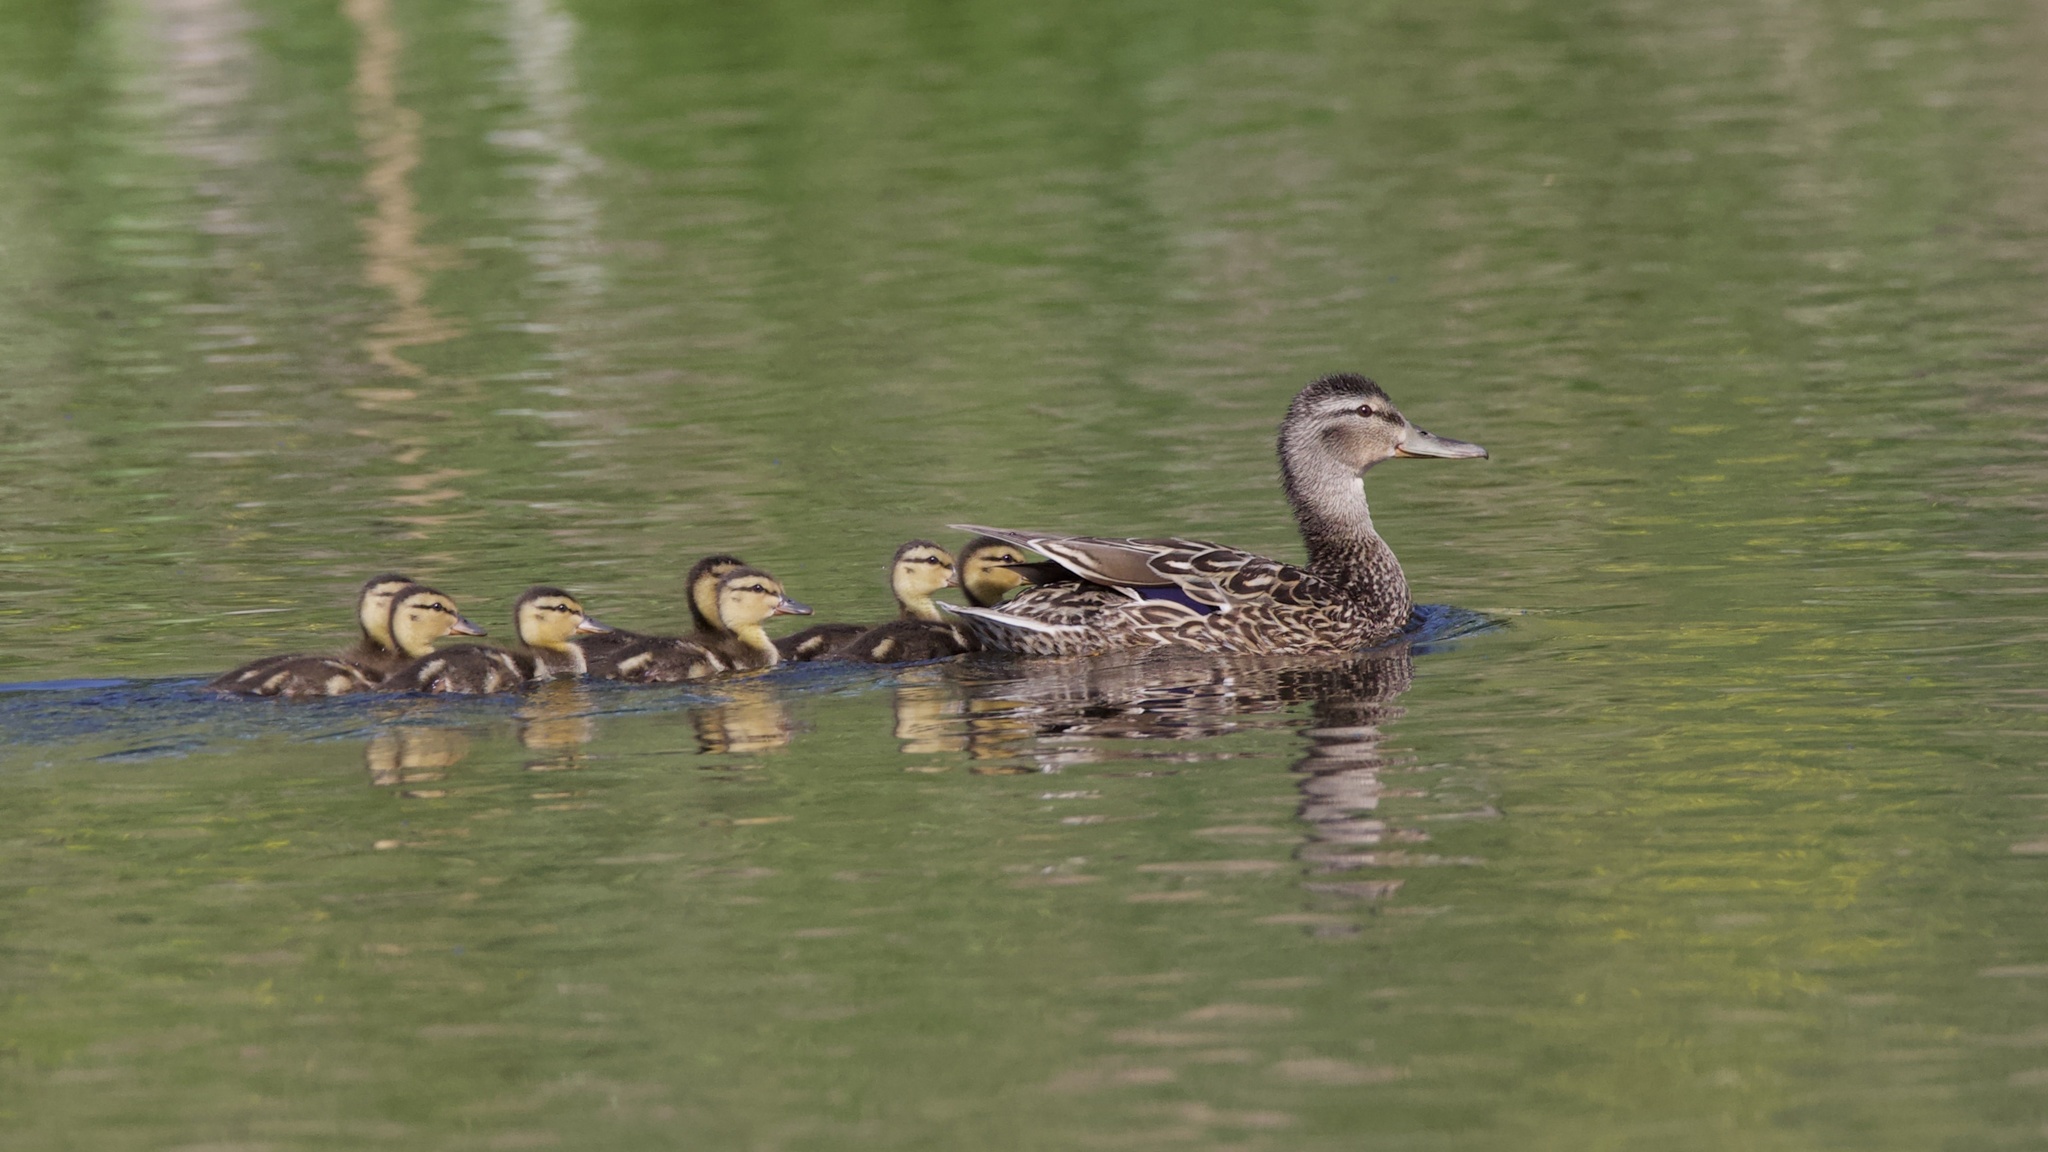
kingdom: Animalia
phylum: Chordata
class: Aves
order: Anseriformes
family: Anatidae
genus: Anas
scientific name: Anas platyrhynchos
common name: Mallard
